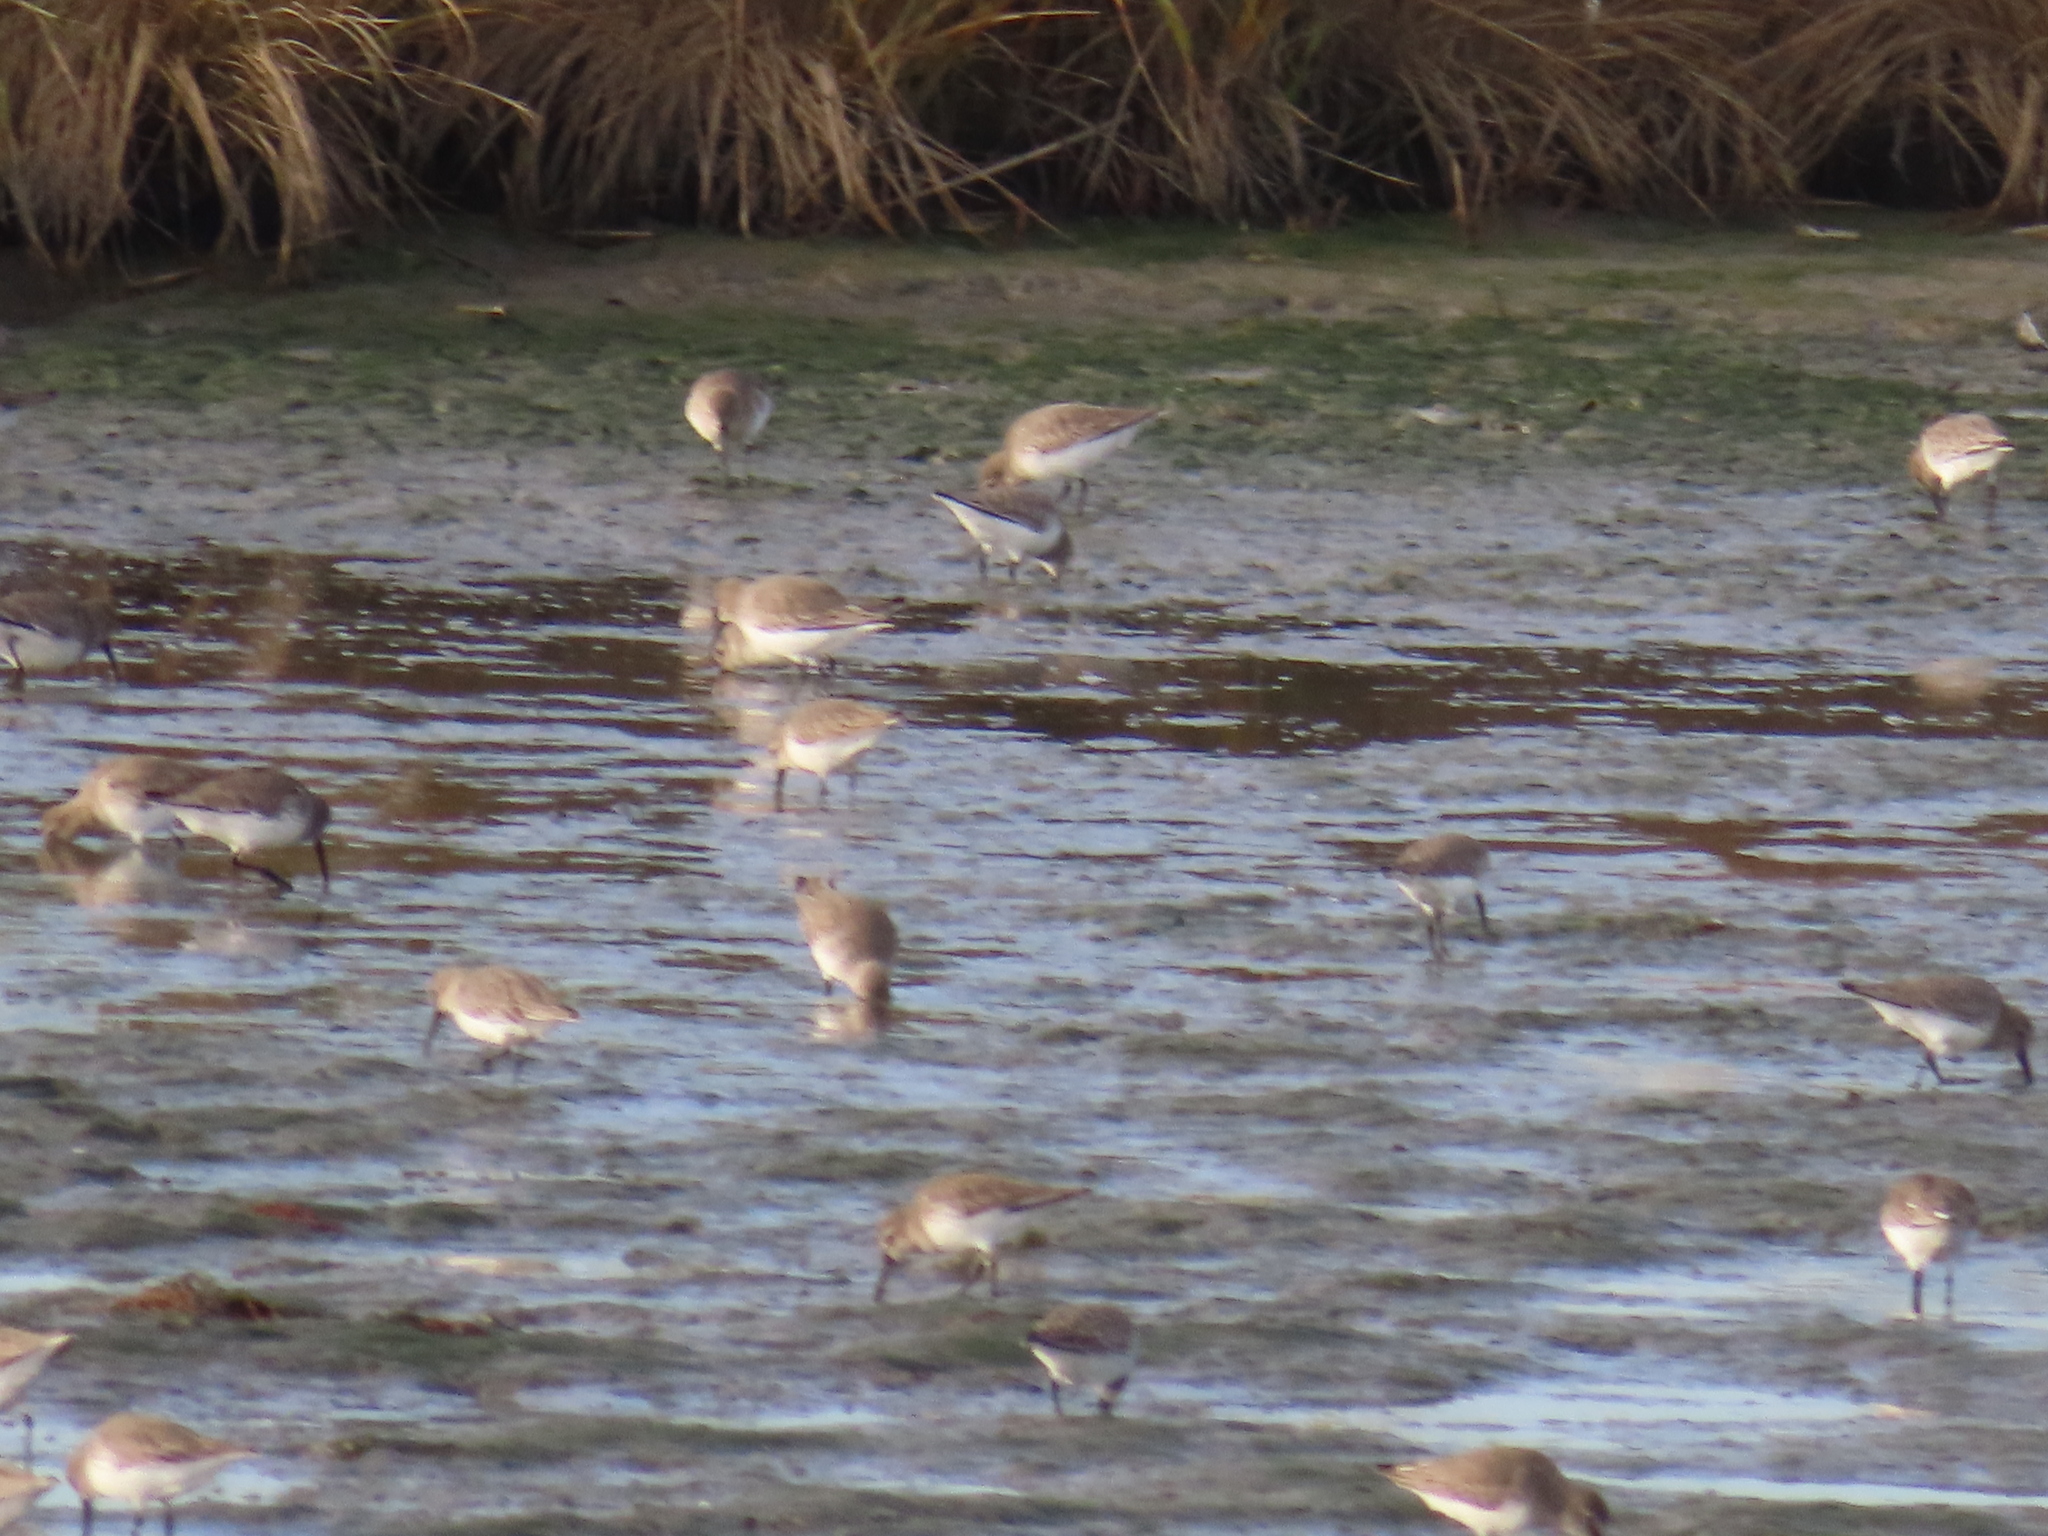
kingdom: Animalia
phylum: Chordata
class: Aves
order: Charadriiformes
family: Scolopacidae
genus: Calidris
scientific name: Calidris alpina
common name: Dunlin
